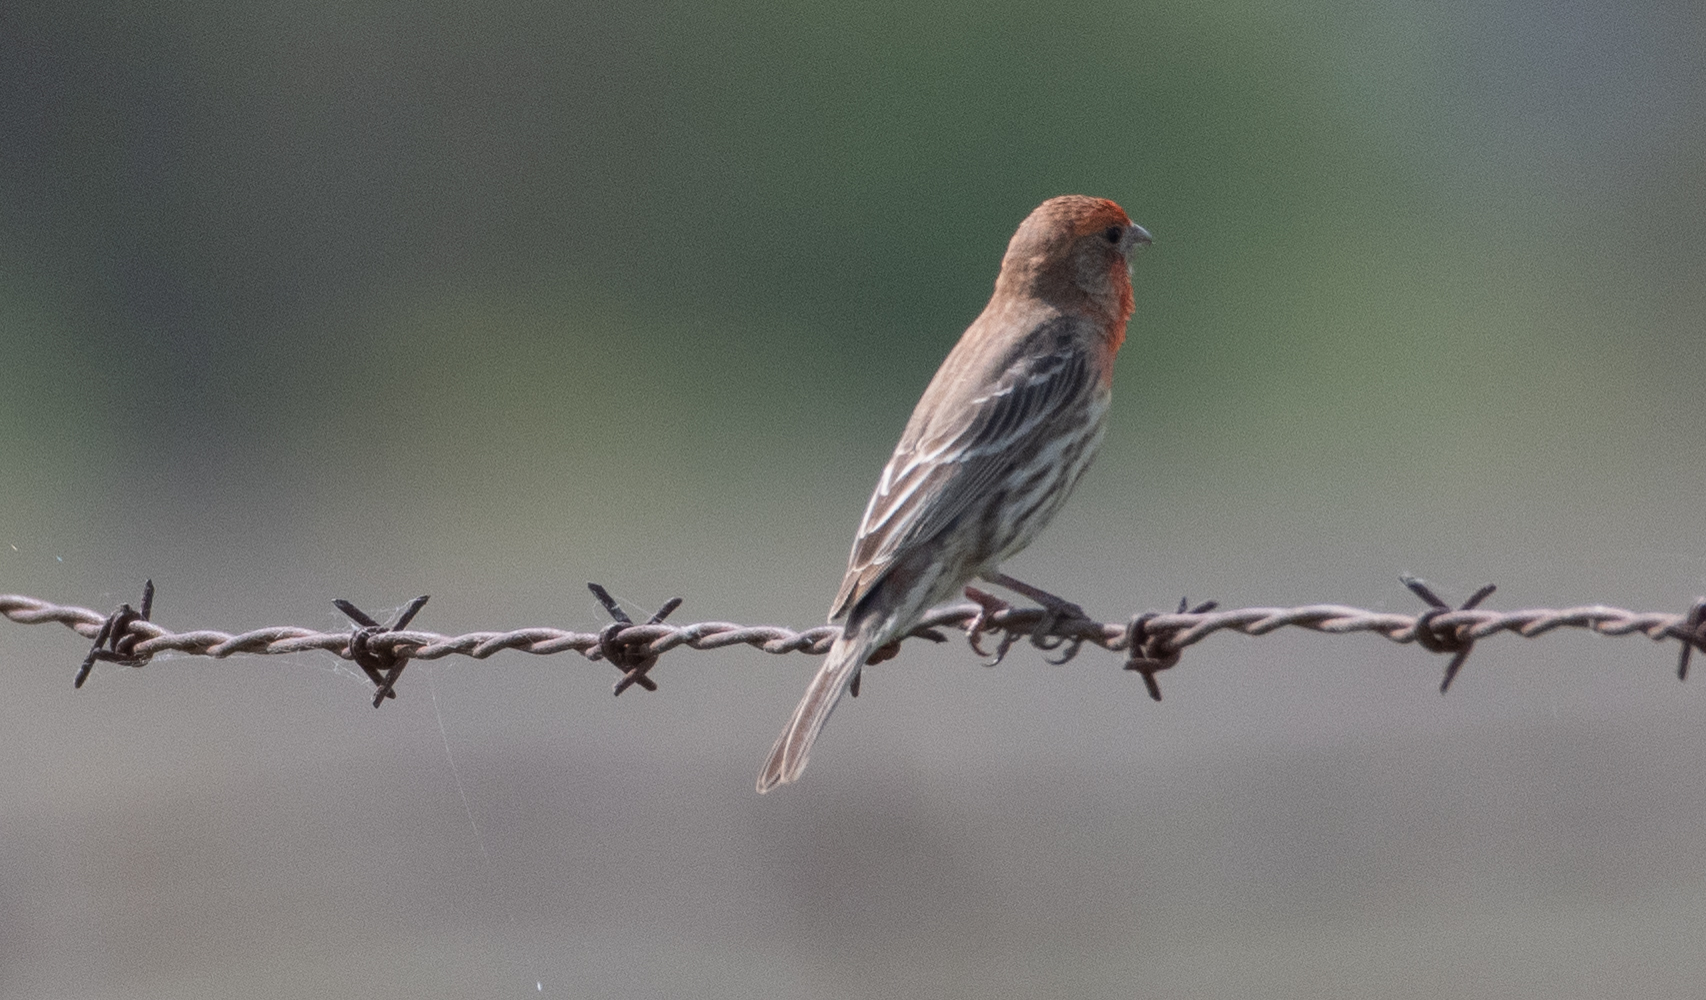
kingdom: Animalia
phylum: Chordata
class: Aves
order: Passeriformes
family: Fringillidae
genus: Haemorhous
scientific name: Haemorhous mexicanus
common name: House finch
